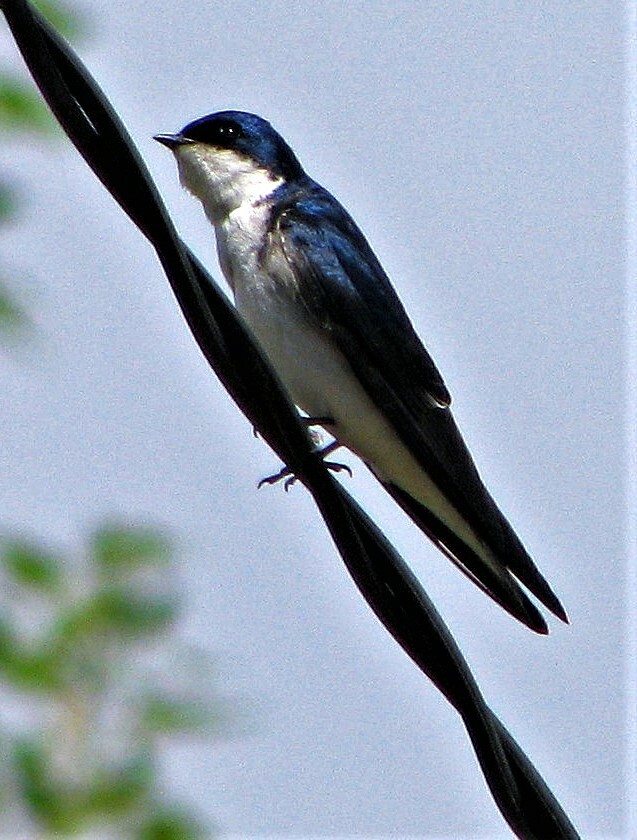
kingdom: Animalia
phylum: Chordata
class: Aves
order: Passeriformes
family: Hirundinidae
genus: Tachycineta
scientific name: Tachycineta leucopyga
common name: Chilean swallow
